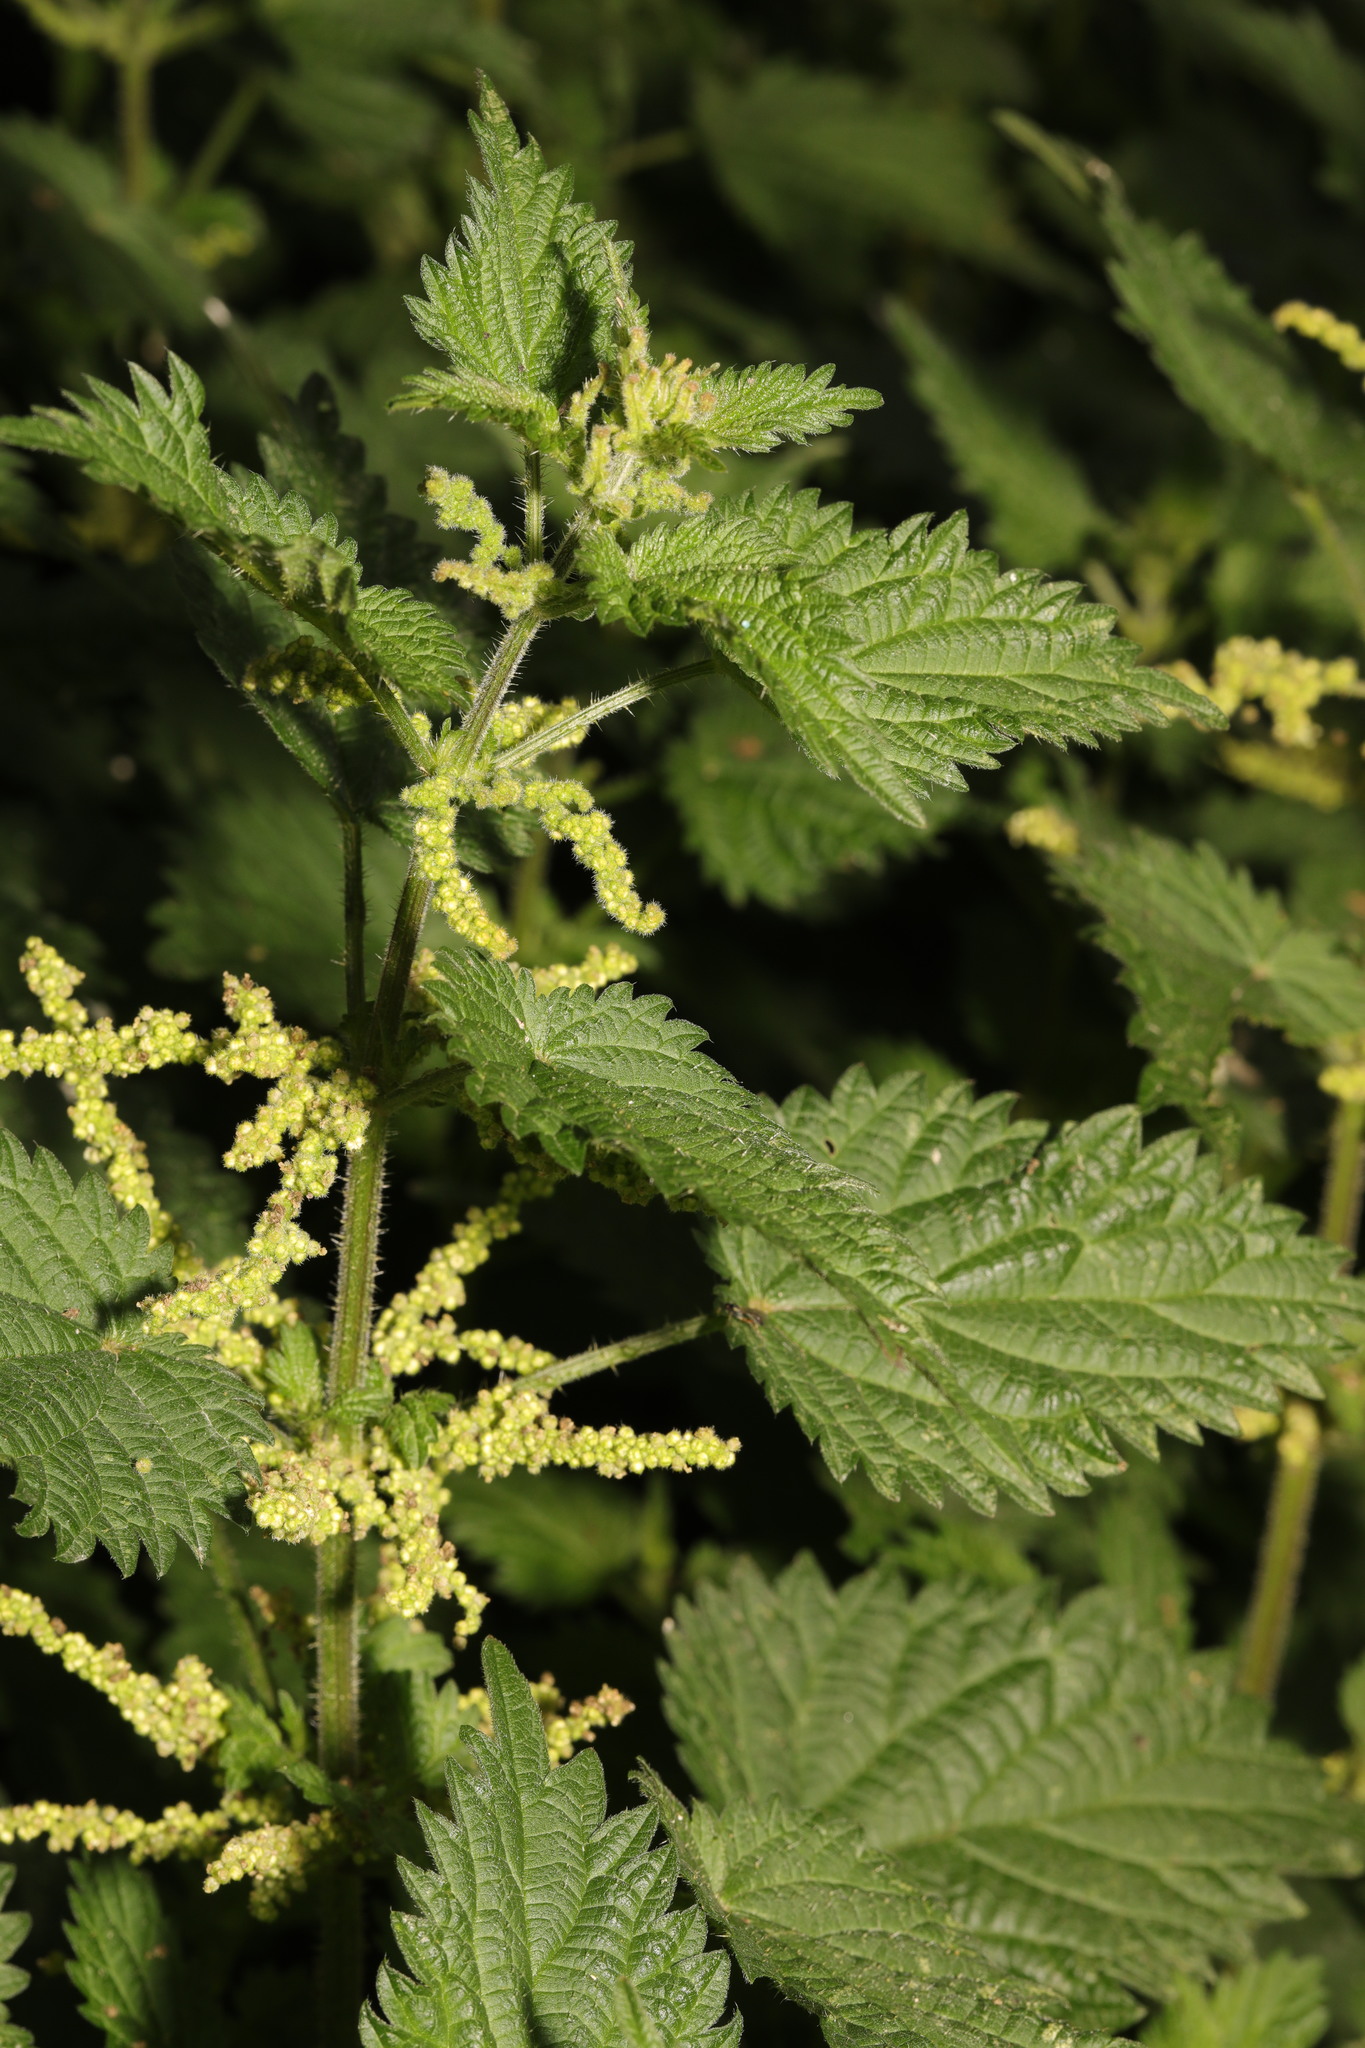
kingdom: Plantae
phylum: Tracheophyta
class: Magnoliopsida
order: Rosales
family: Urticaceae
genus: Urtica
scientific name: Urtica dioica
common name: Common nettle
